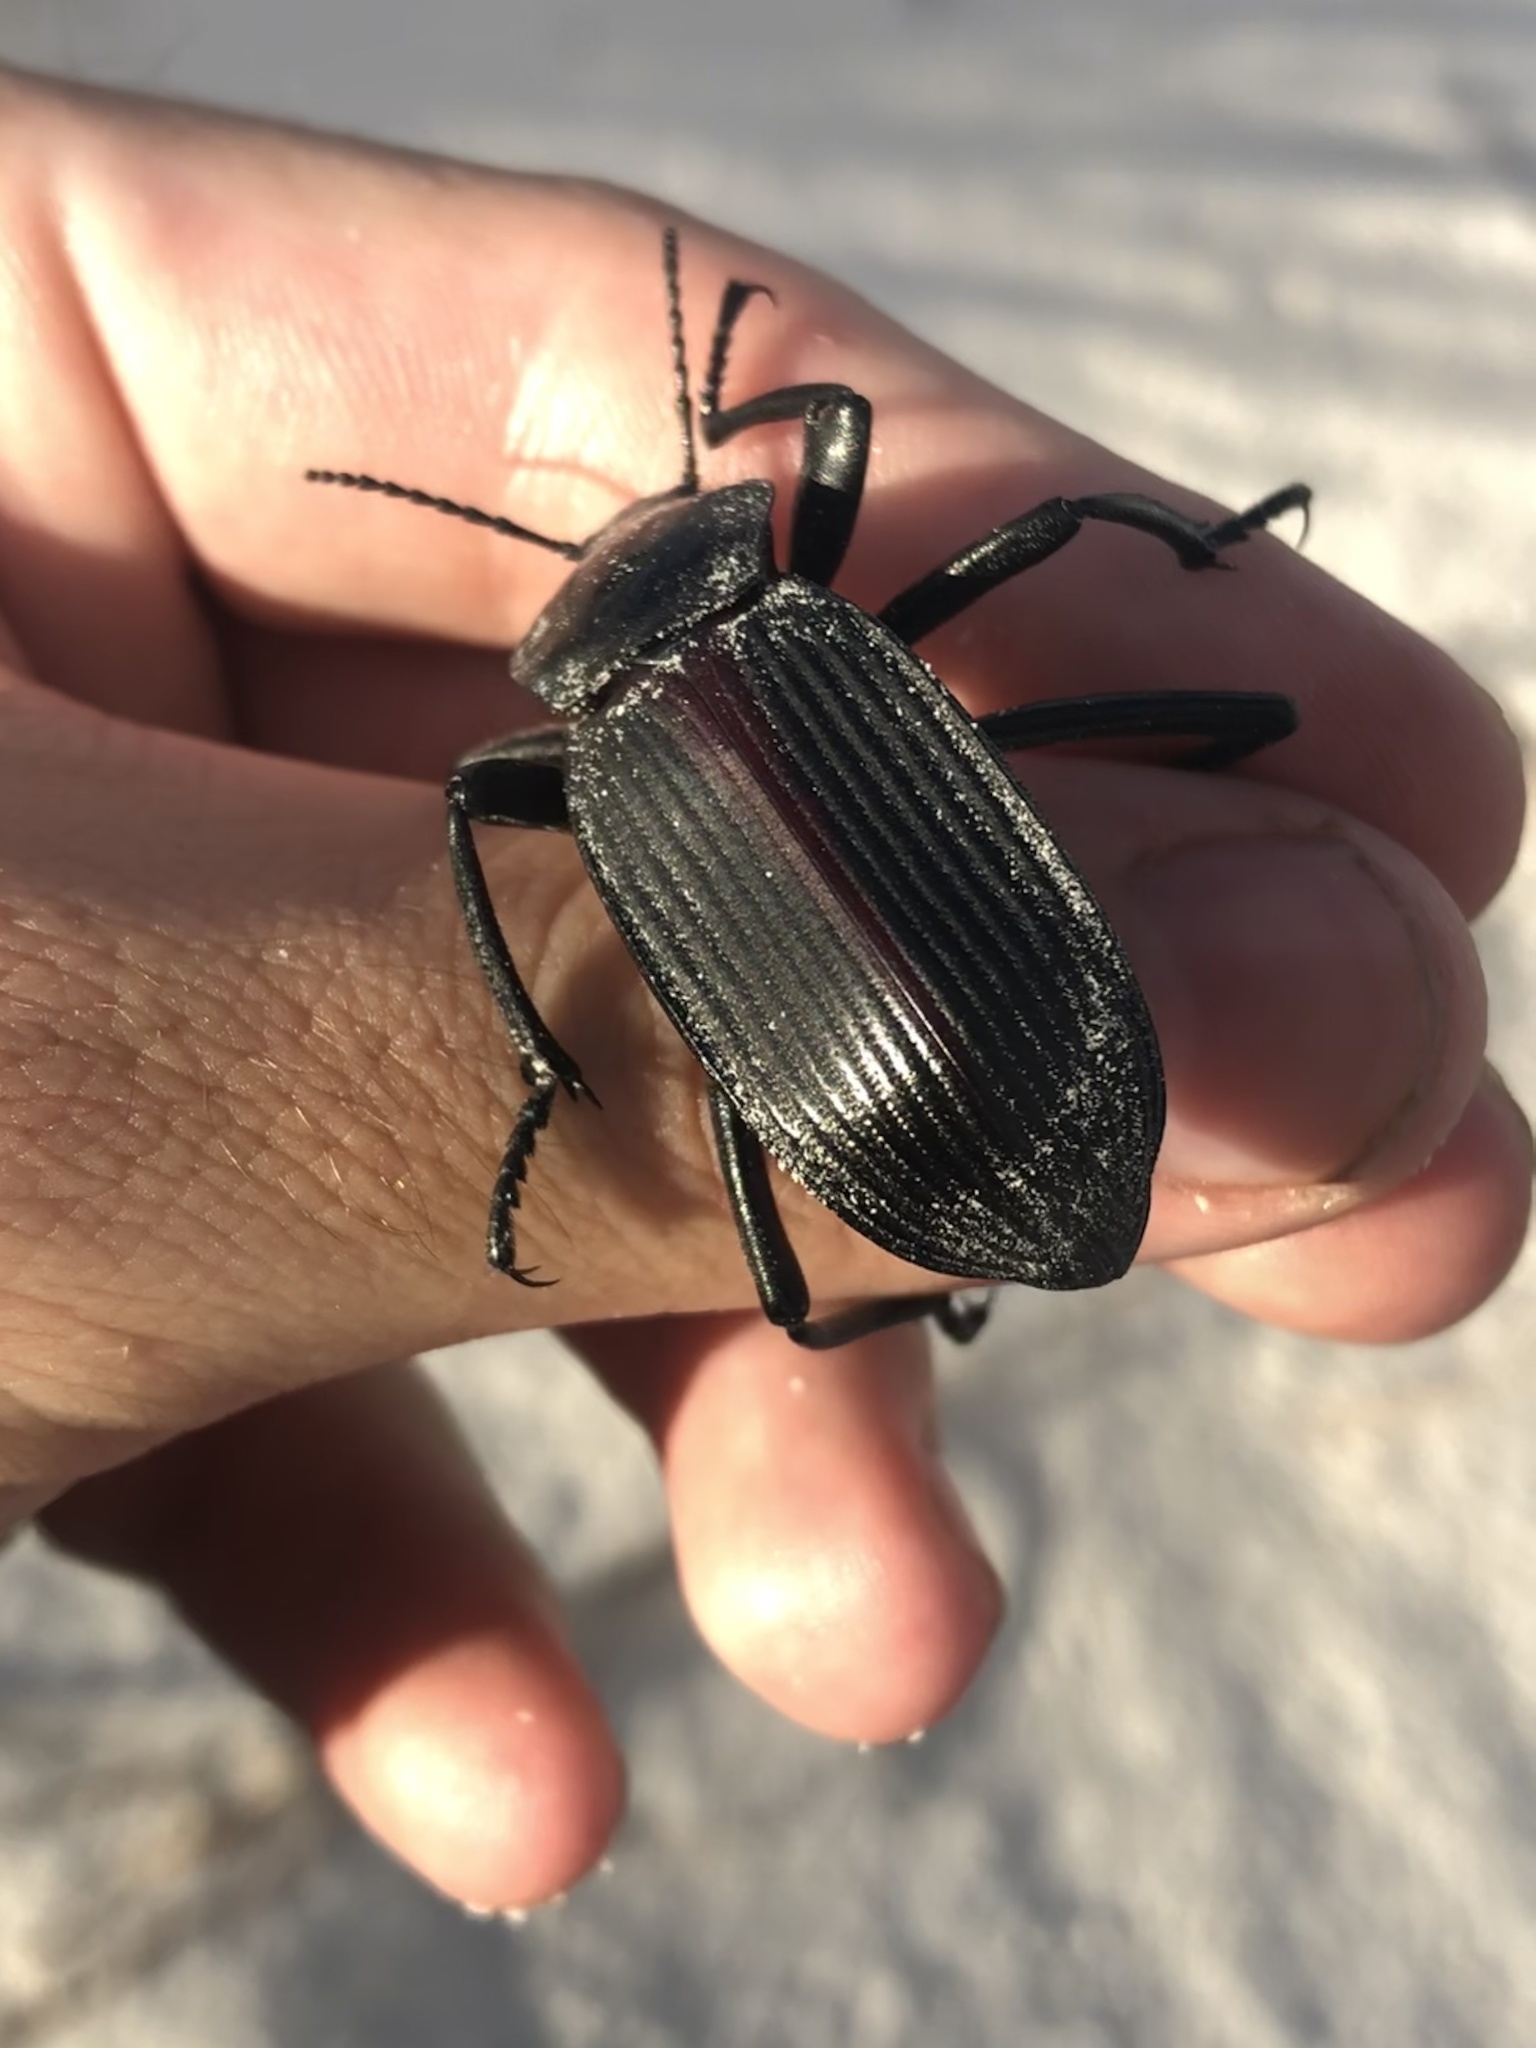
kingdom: Animalia
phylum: Arthropoda
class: Insecta
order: Coleoptera
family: Tenebrionidae
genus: Eleodes
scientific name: Eleodes acuta
